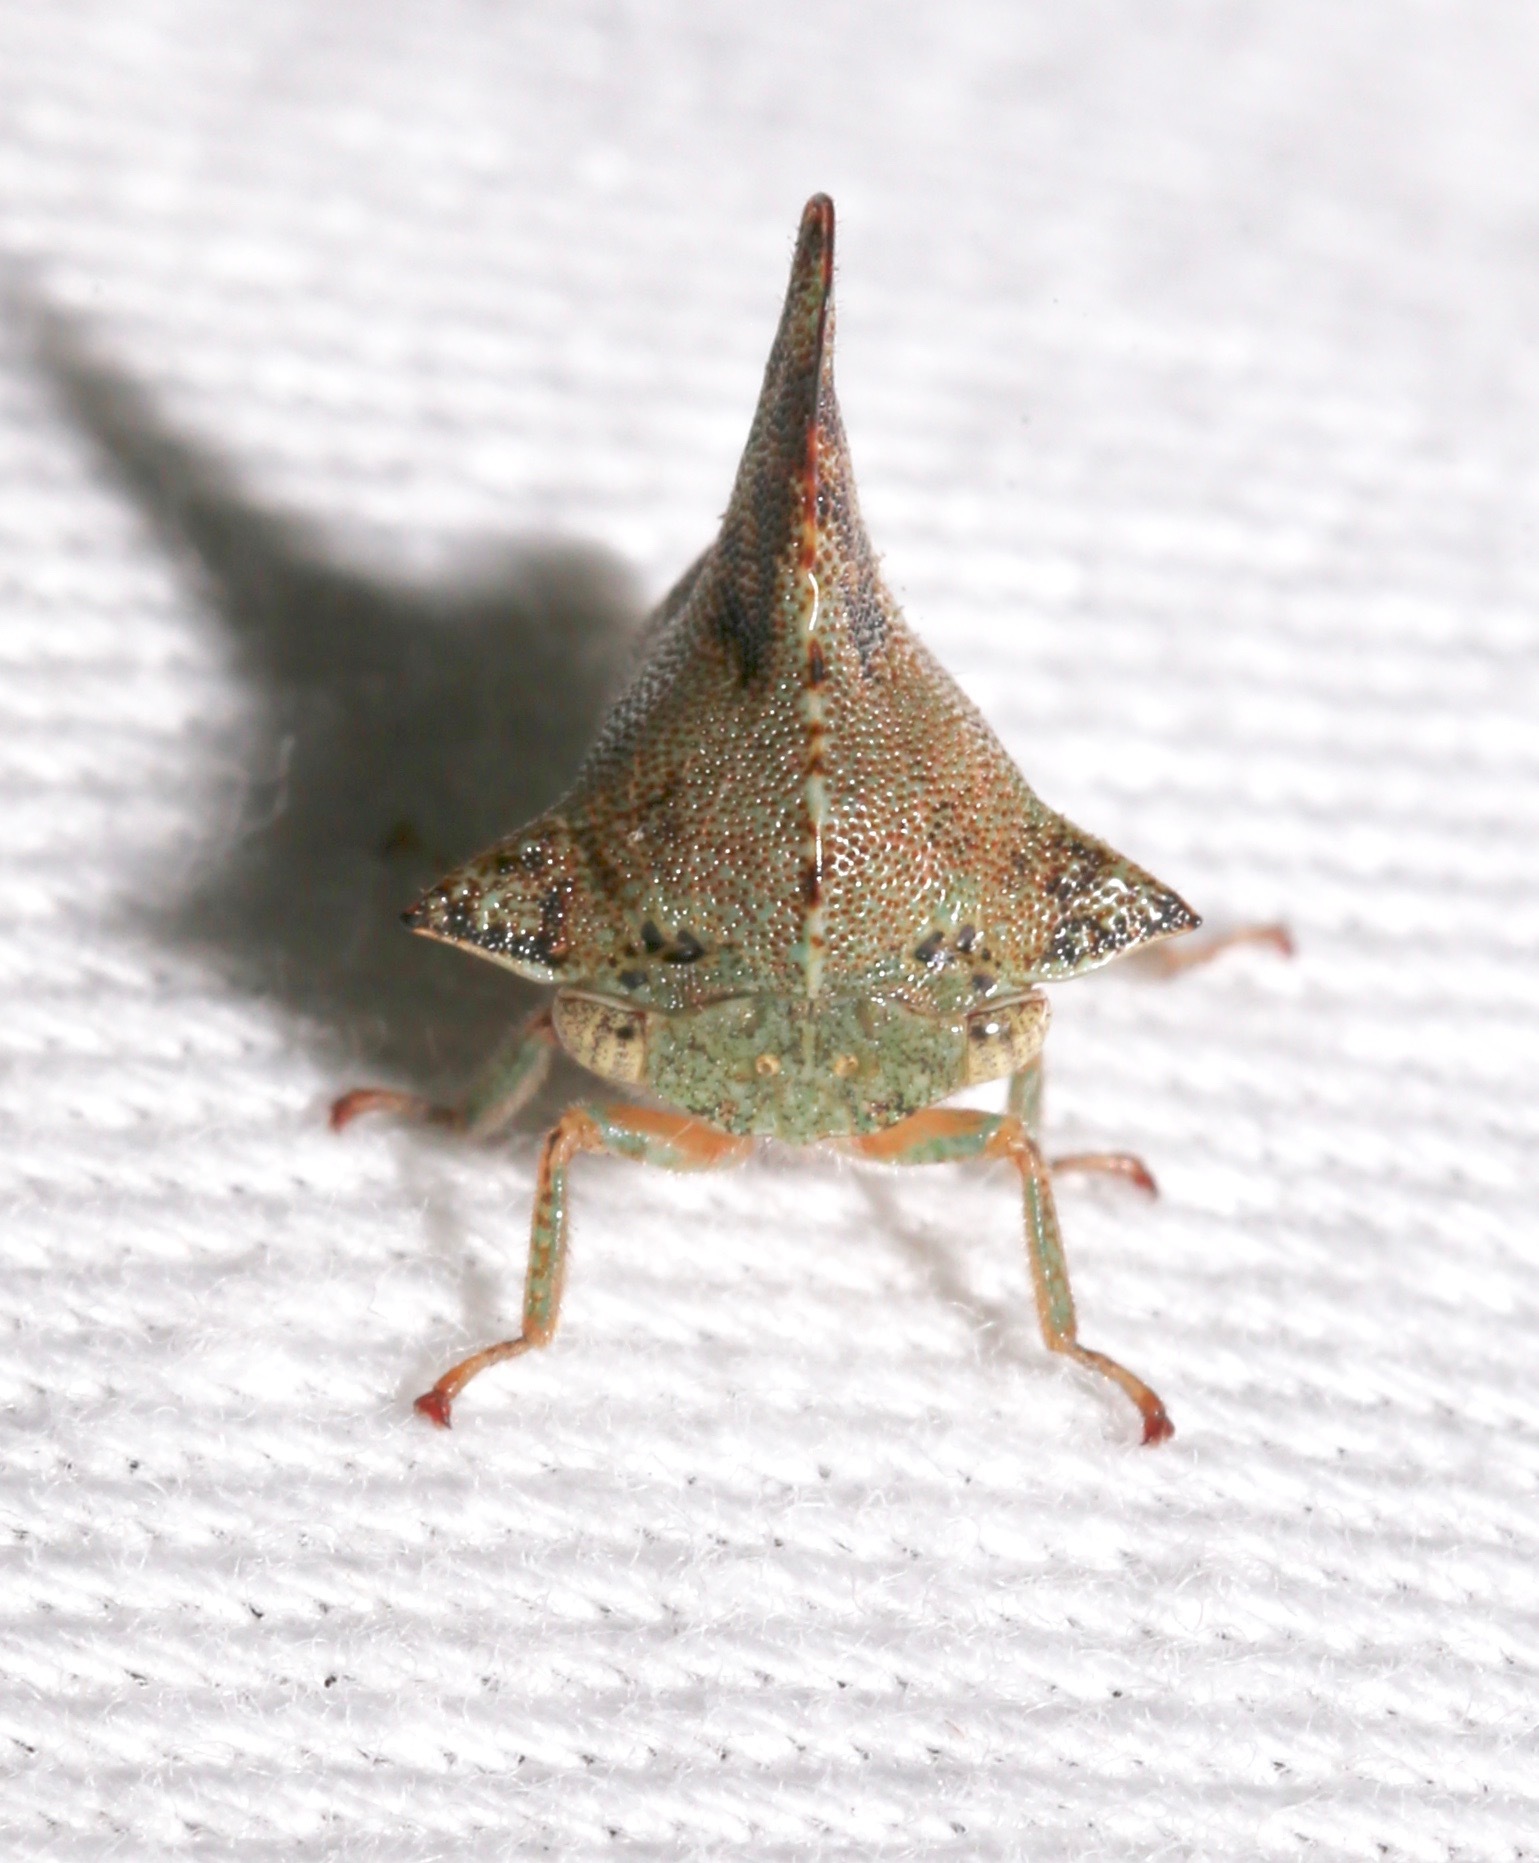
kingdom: Animalia
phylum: Arthropoda
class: Insecta
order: Hemiptera
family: Membracidae
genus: Telonaca
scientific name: Telonaca alta
